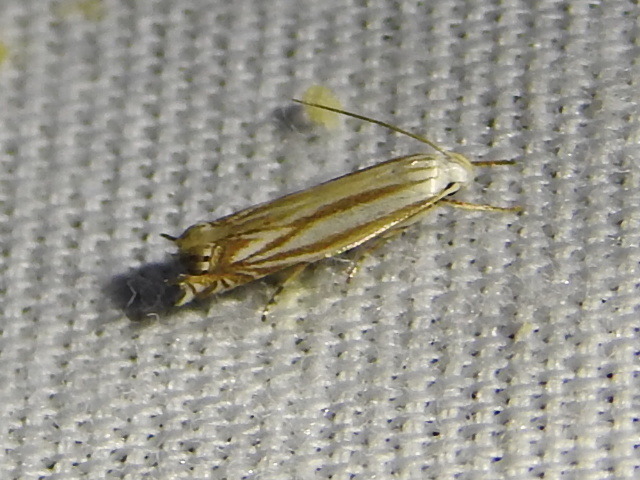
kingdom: Animalia
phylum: Arthropoda
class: Insecta
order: Lepidoptera
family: Gelechiidae
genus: Polyhymno
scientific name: Polyhymno luteostrigella
